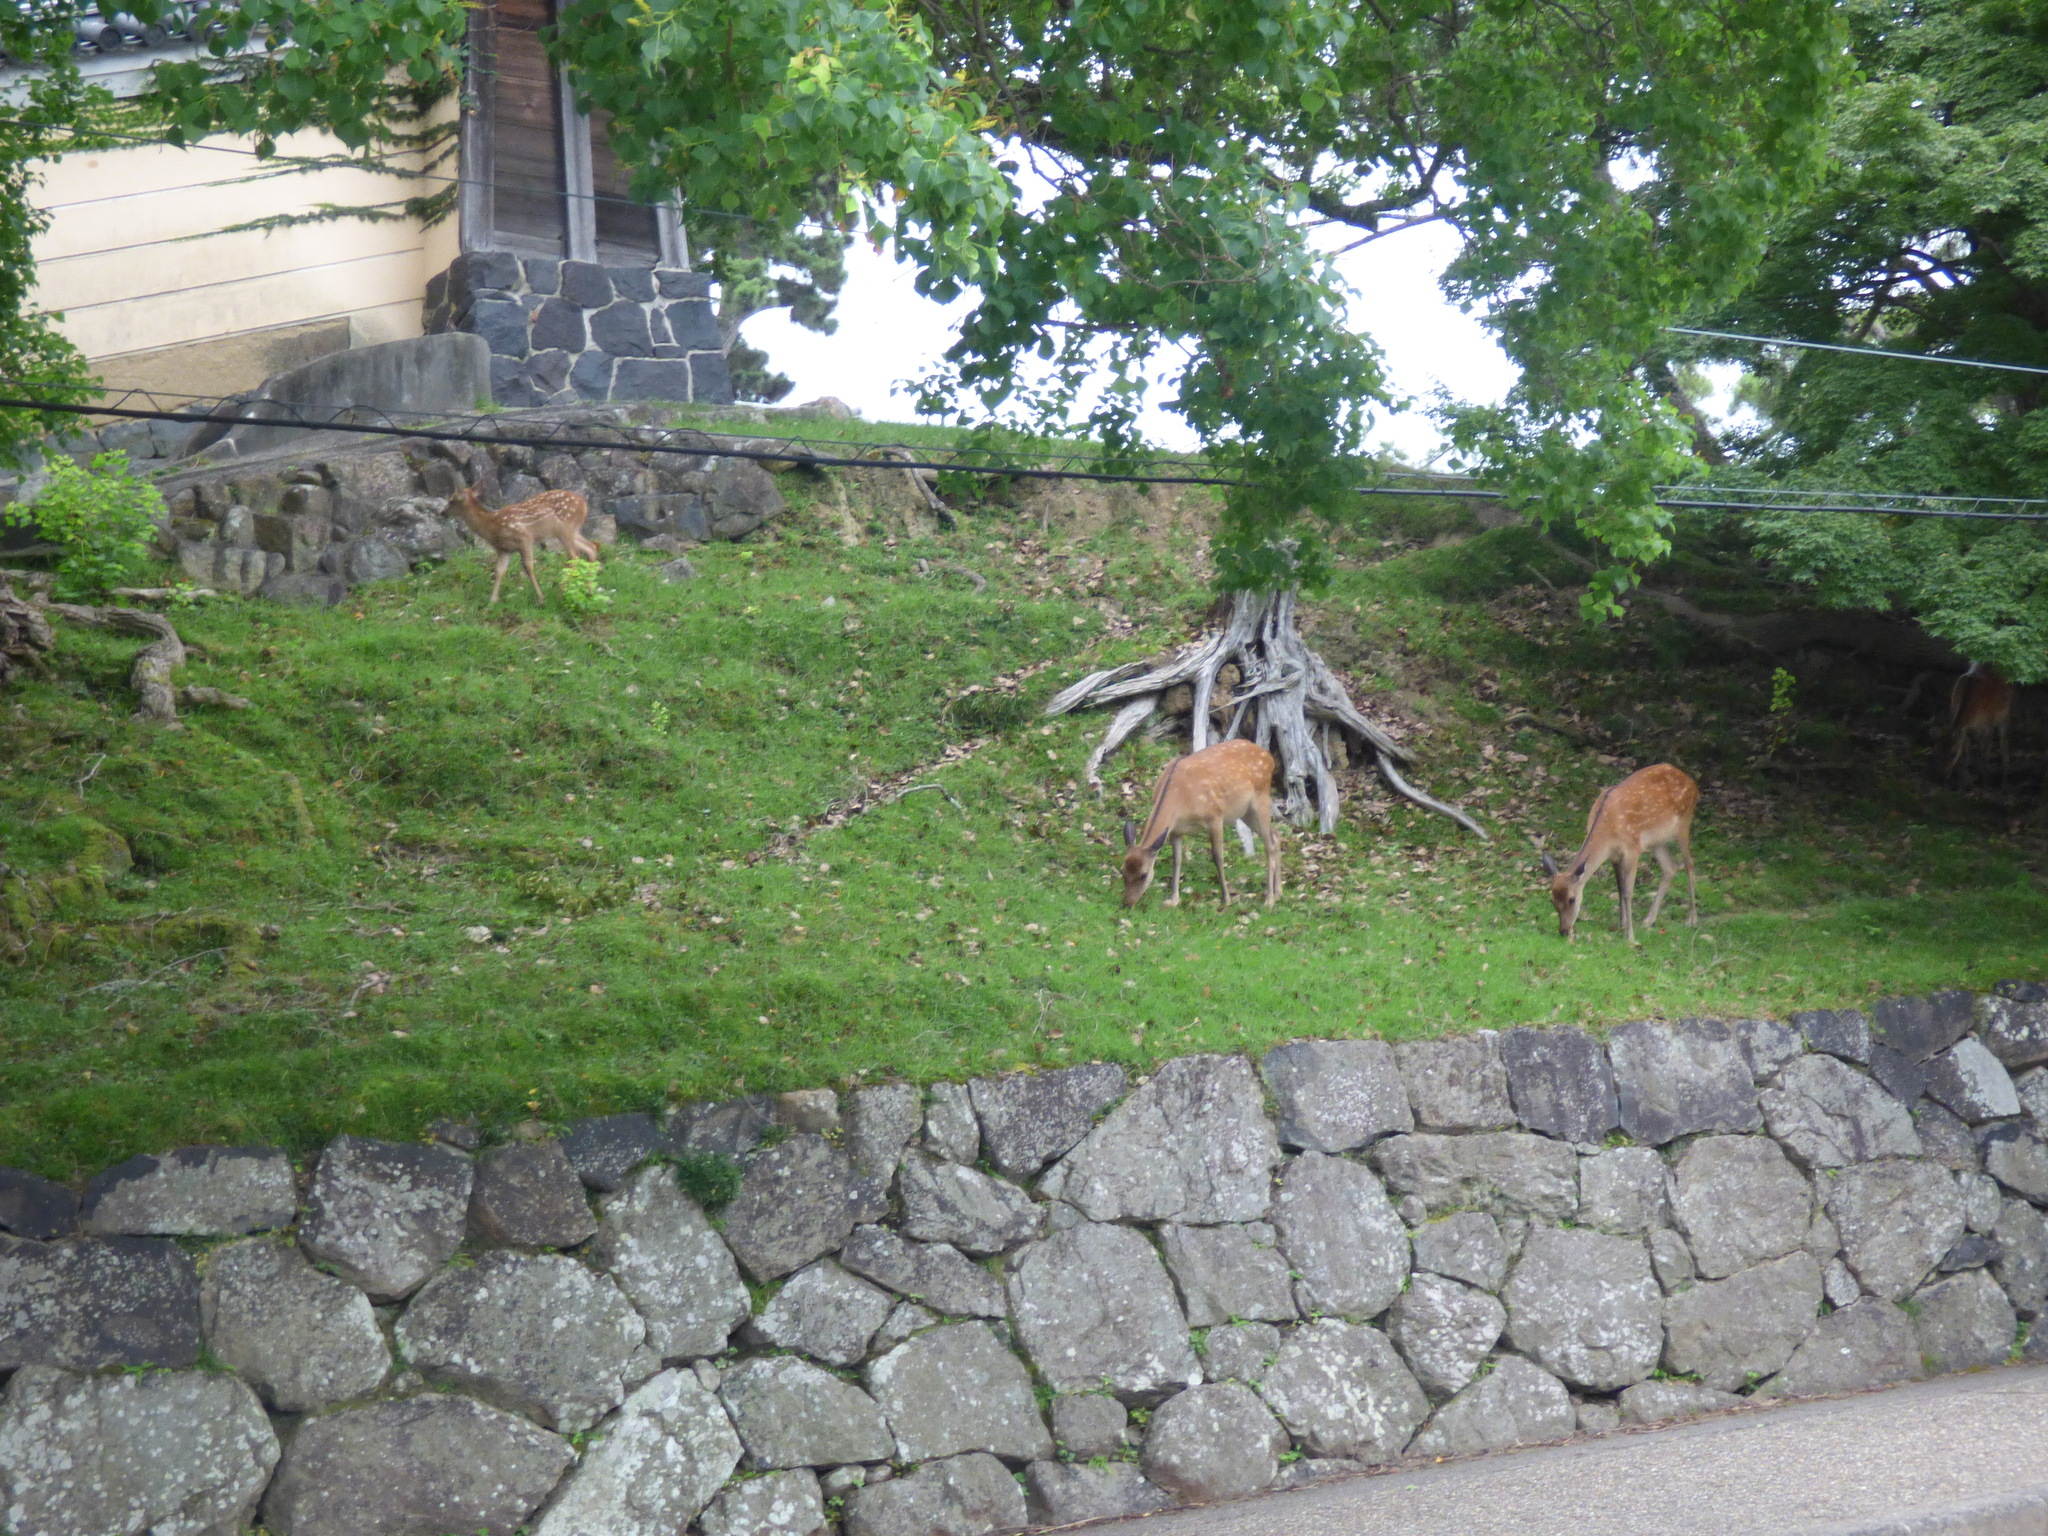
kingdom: Animalia
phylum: Chordata
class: Mammalia
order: Artiodactyla
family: Cervidae
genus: Cervus
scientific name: Cervus nippon
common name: Sika deer
